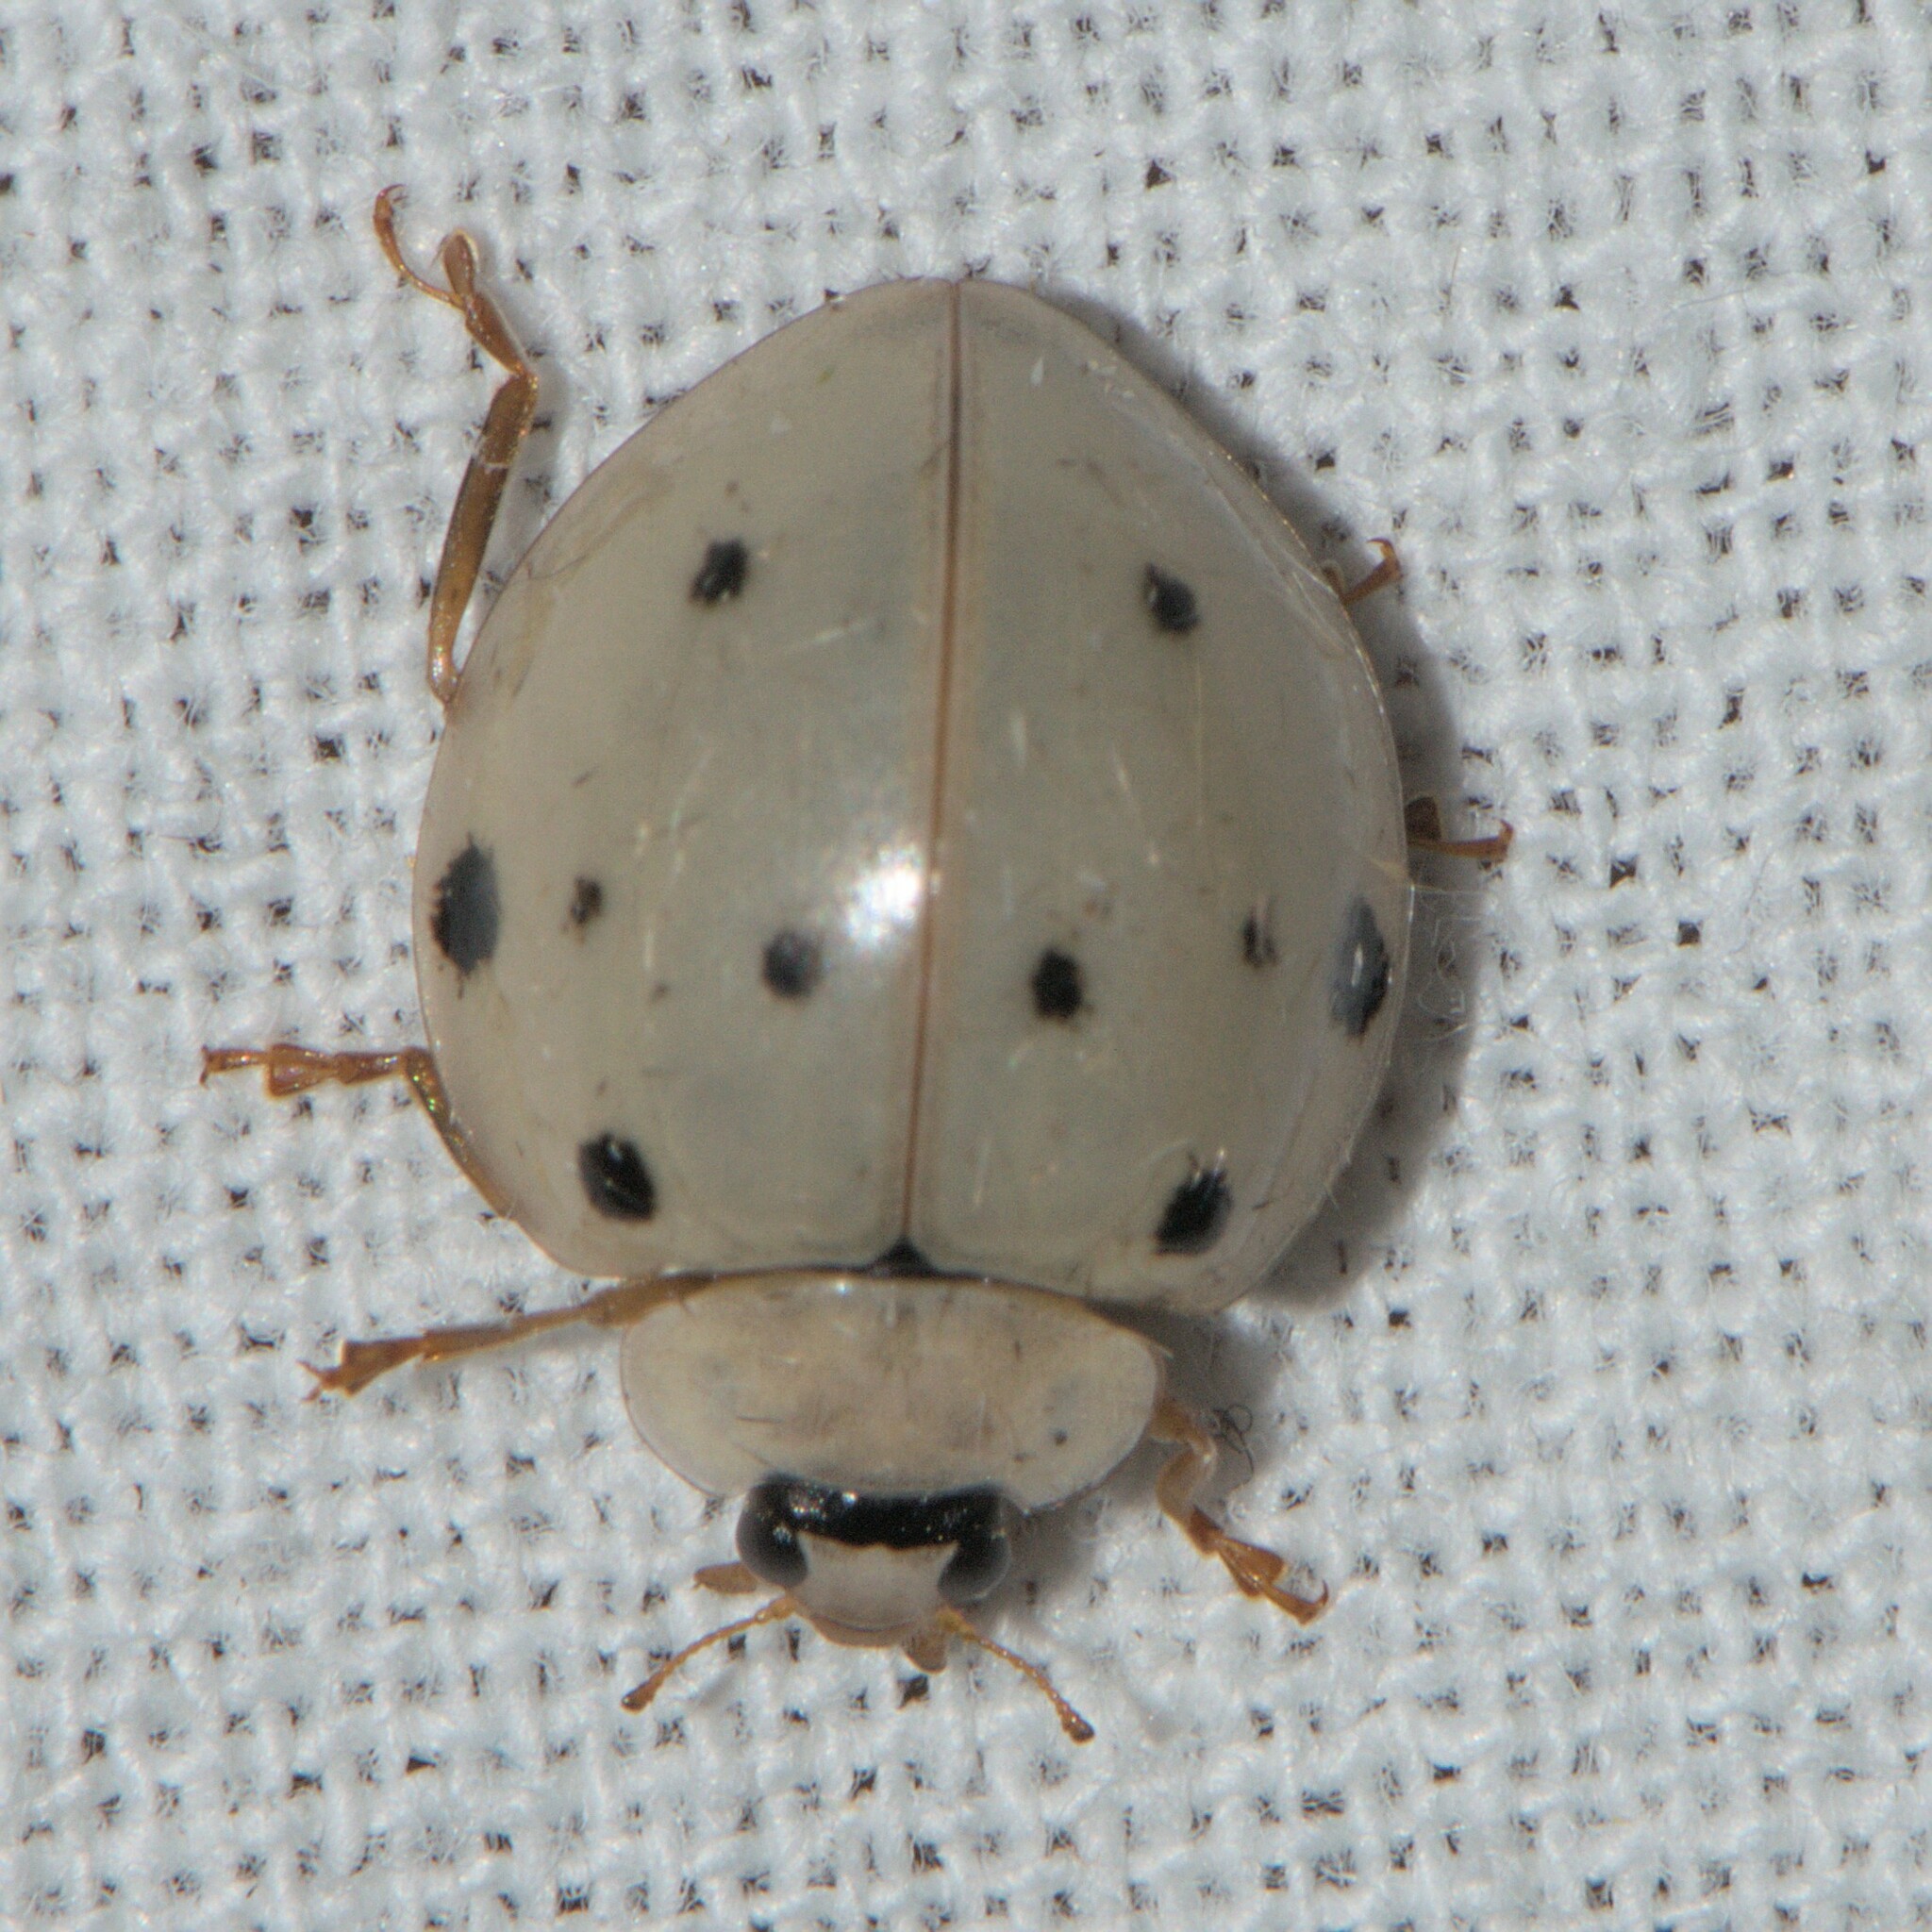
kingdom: Animalia
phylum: Arthropoda
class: Insecta
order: Coleoptera
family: Coccinellidae
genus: Harmonia
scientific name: Harmonia eucharis
